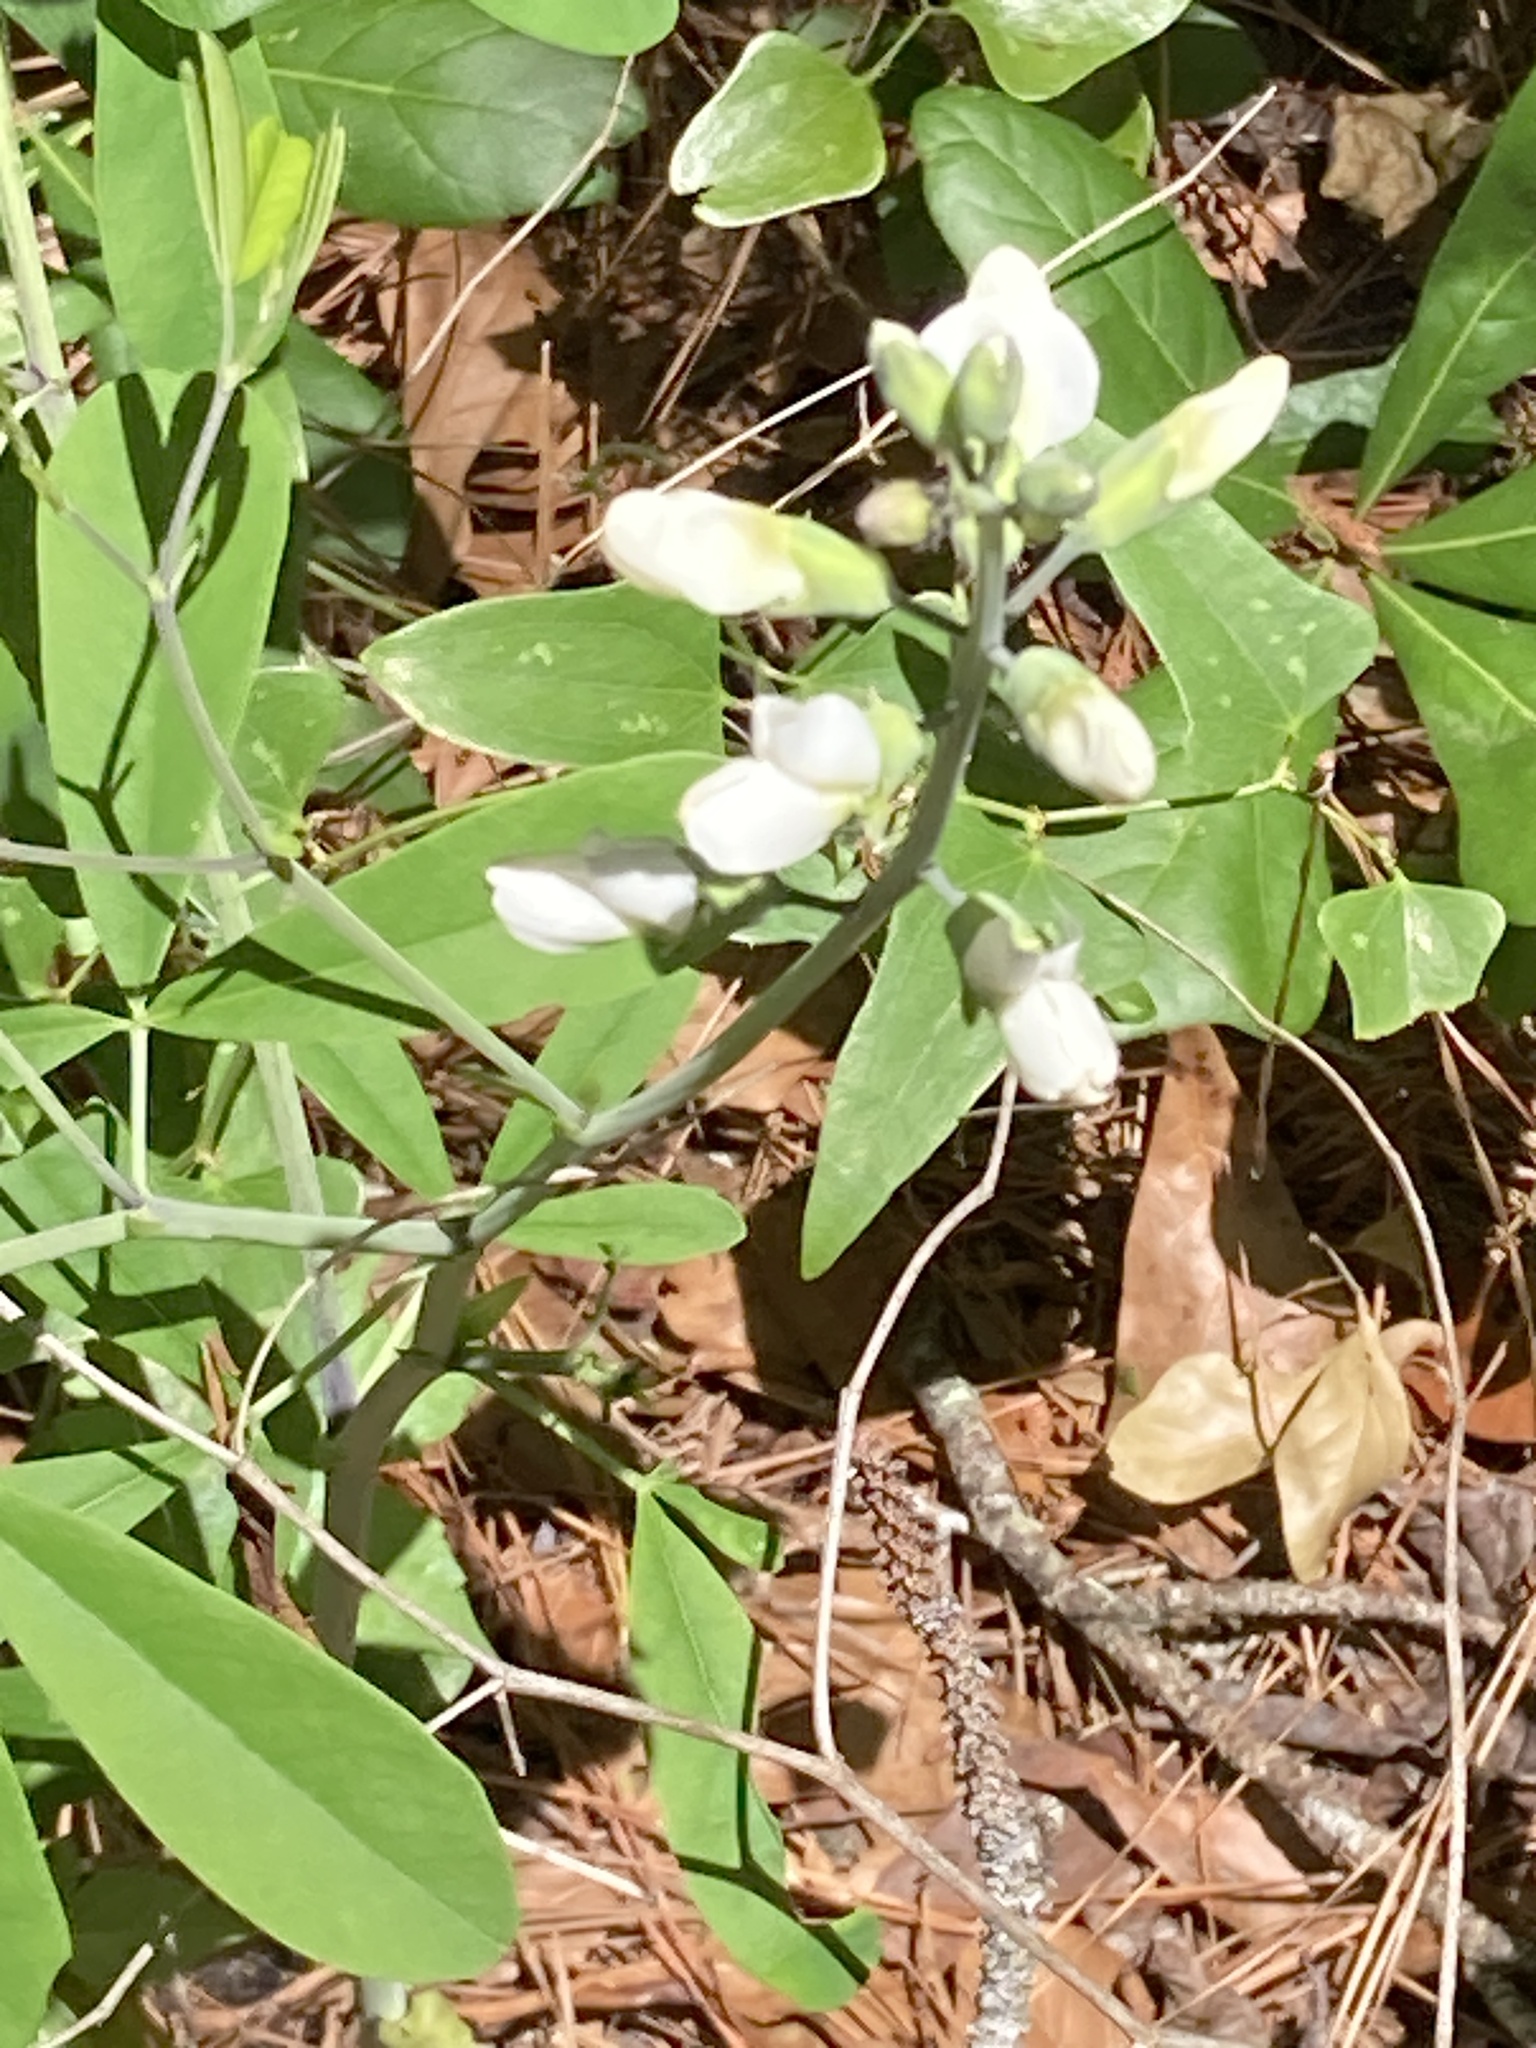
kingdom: Plantae
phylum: Tracheophyta
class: Magnoliopsida
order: Fabales
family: Fabaceae
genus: Baptisia
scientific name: Baptisia alba
